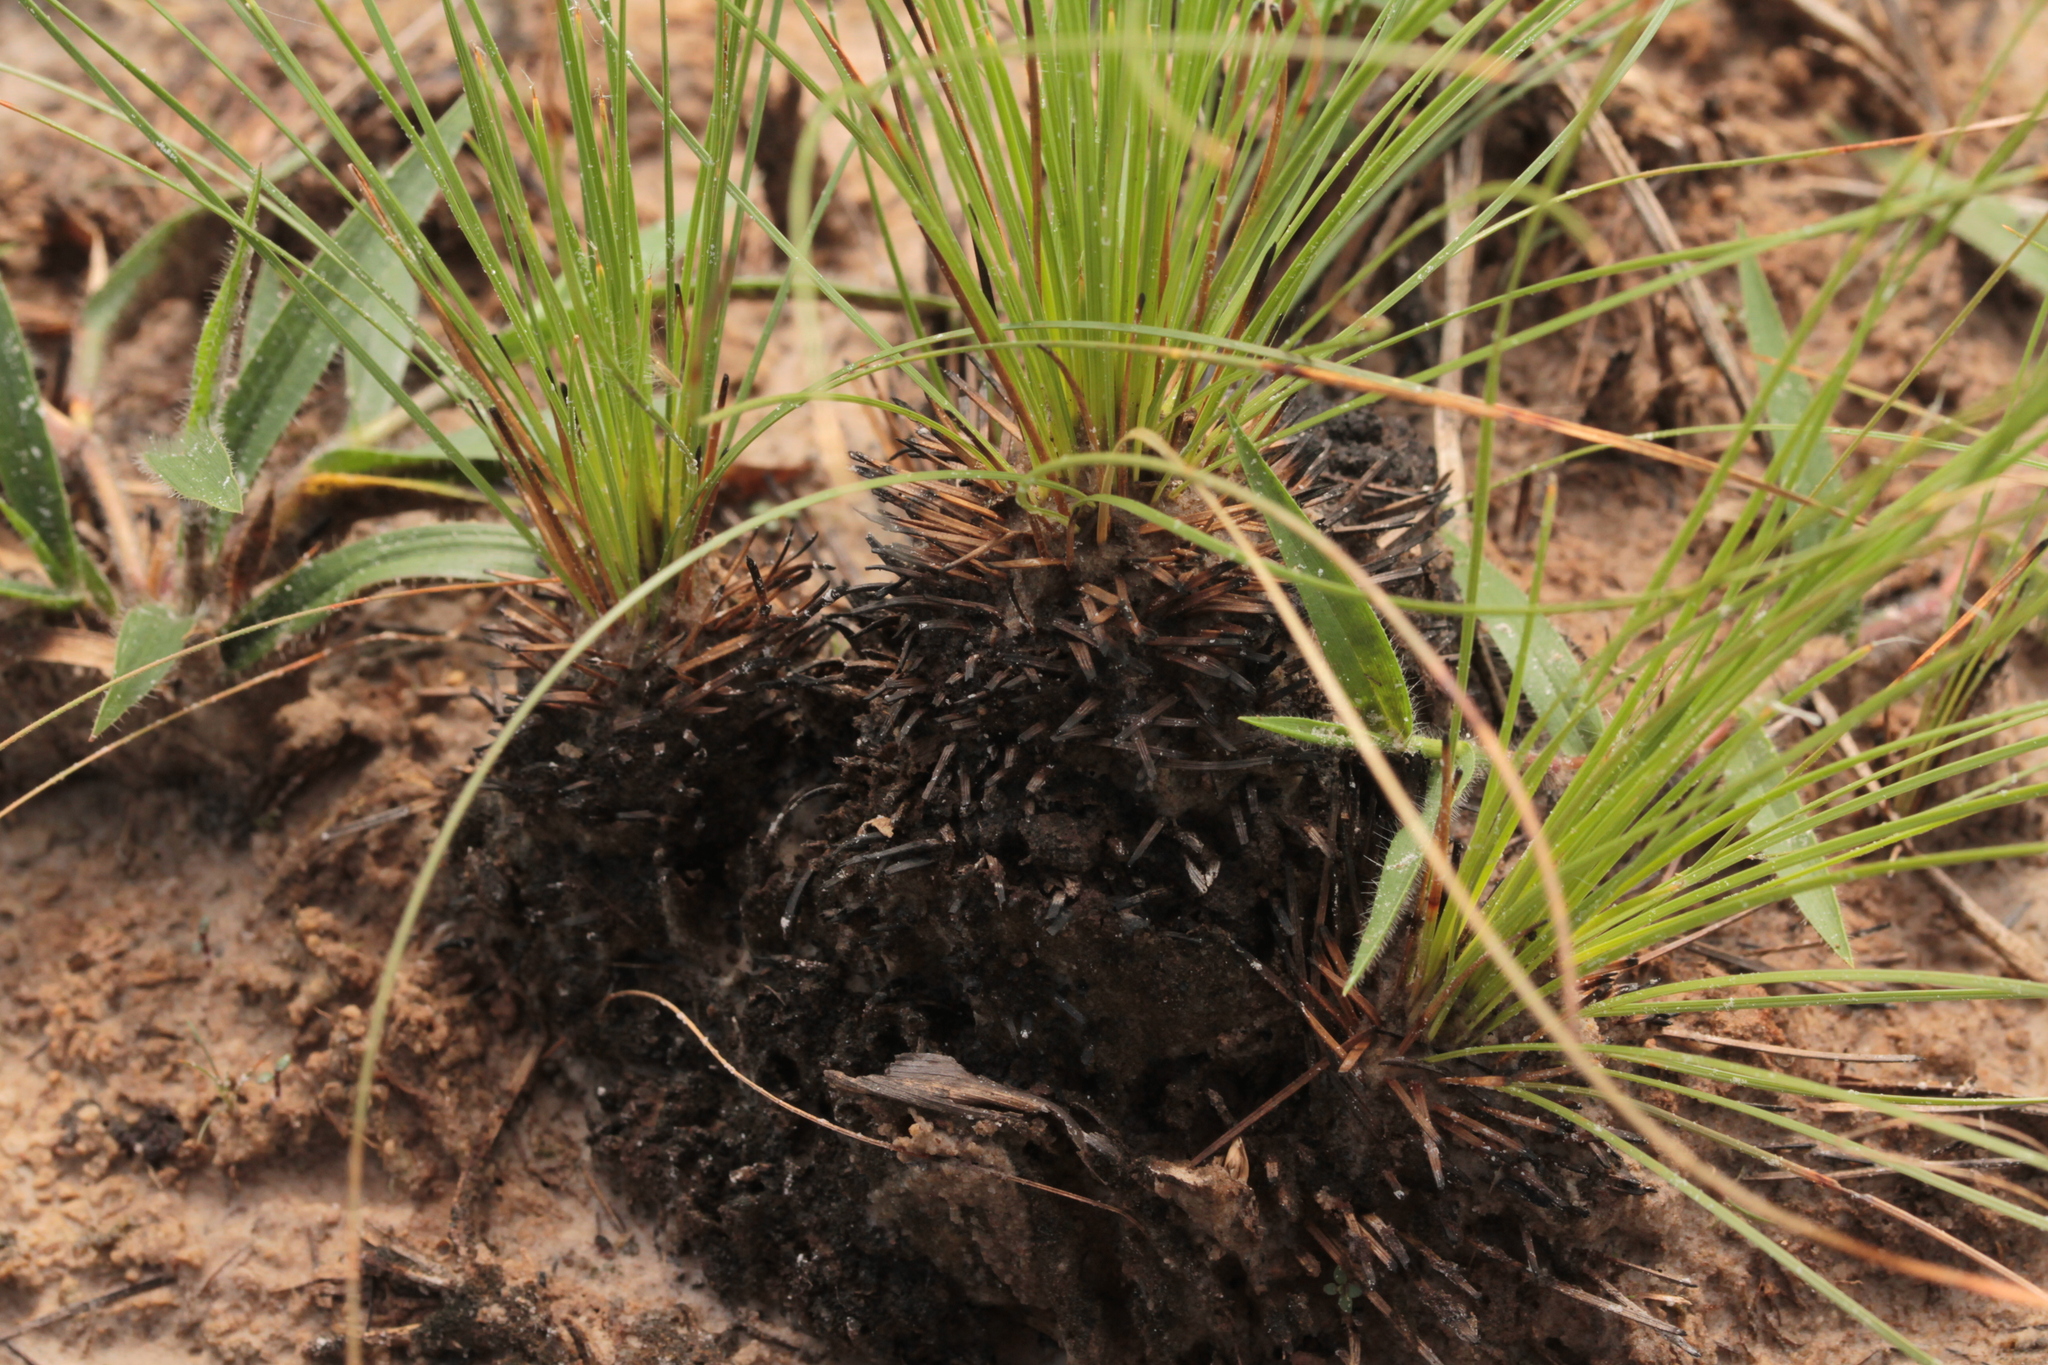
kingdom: Plantae
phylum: Tracheophyta
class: Liliopsida
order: Poales
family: Cyperaceae
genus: Bulbostylis
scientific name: Bulbostylis lanata
